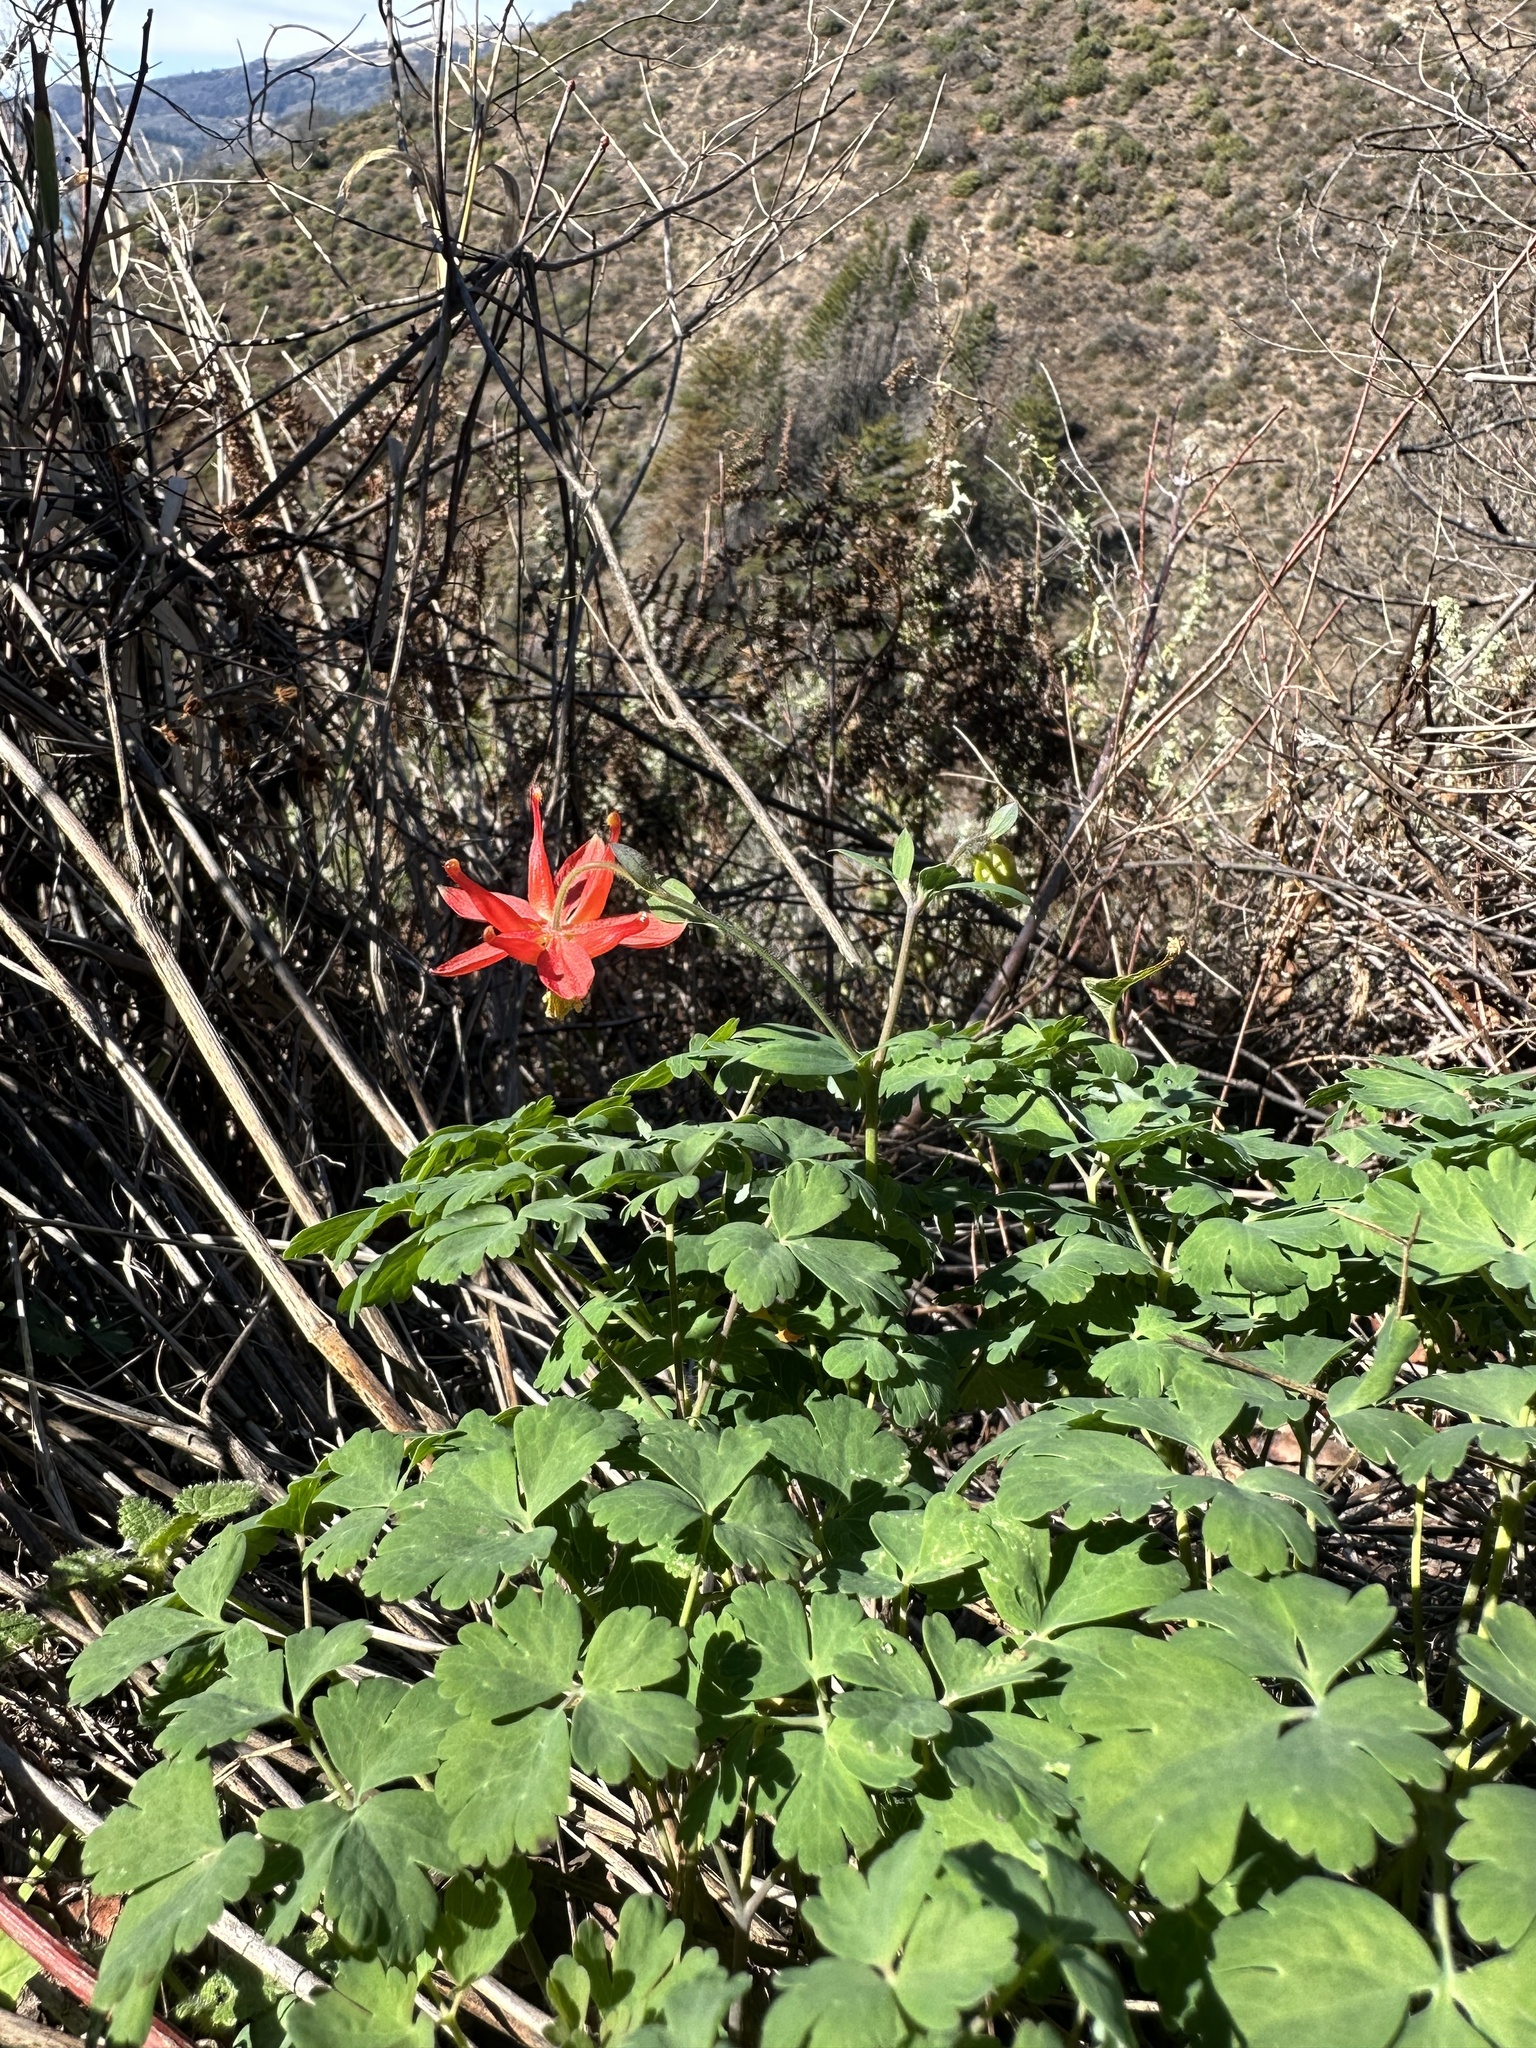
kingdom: Plantae
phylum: Tracheophyta
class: Magnoliopsida
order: Ranunculales
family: Ranunculaceae
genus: Aquilegia
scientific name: Aquilegia formosa
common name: Sitka columbine
